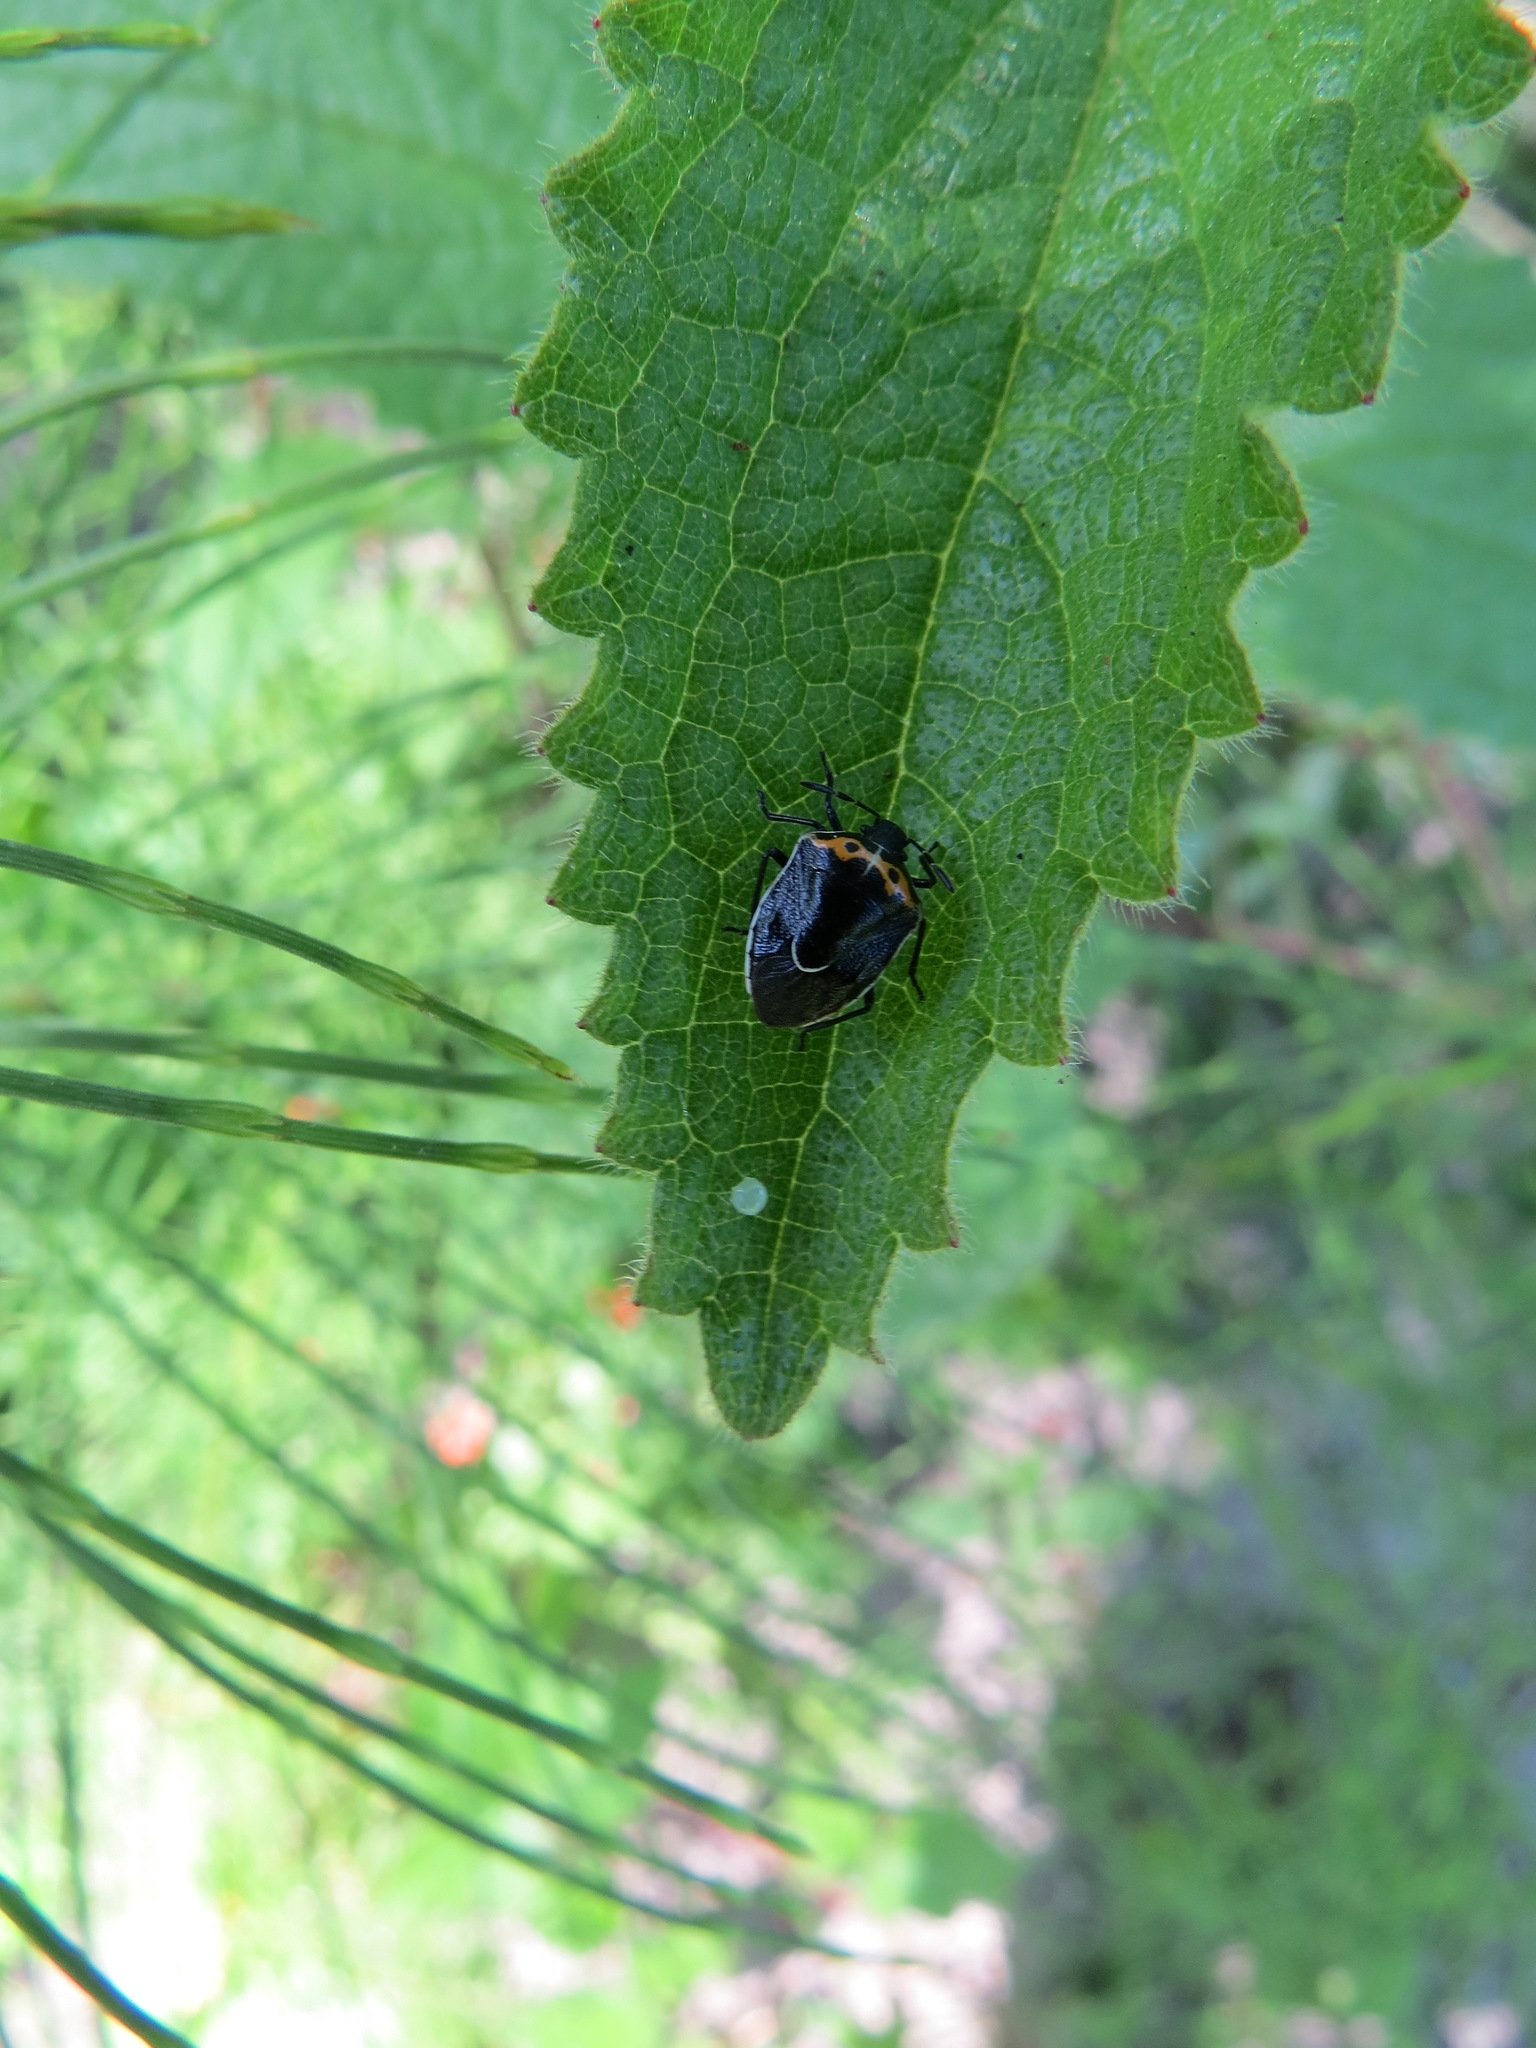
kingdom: Animalia
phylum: Arthropoda
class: Insecta
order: Hemiptera
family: Pentatomidae
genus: Cosmopepla
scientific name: Cosmopepla conspicillaris
